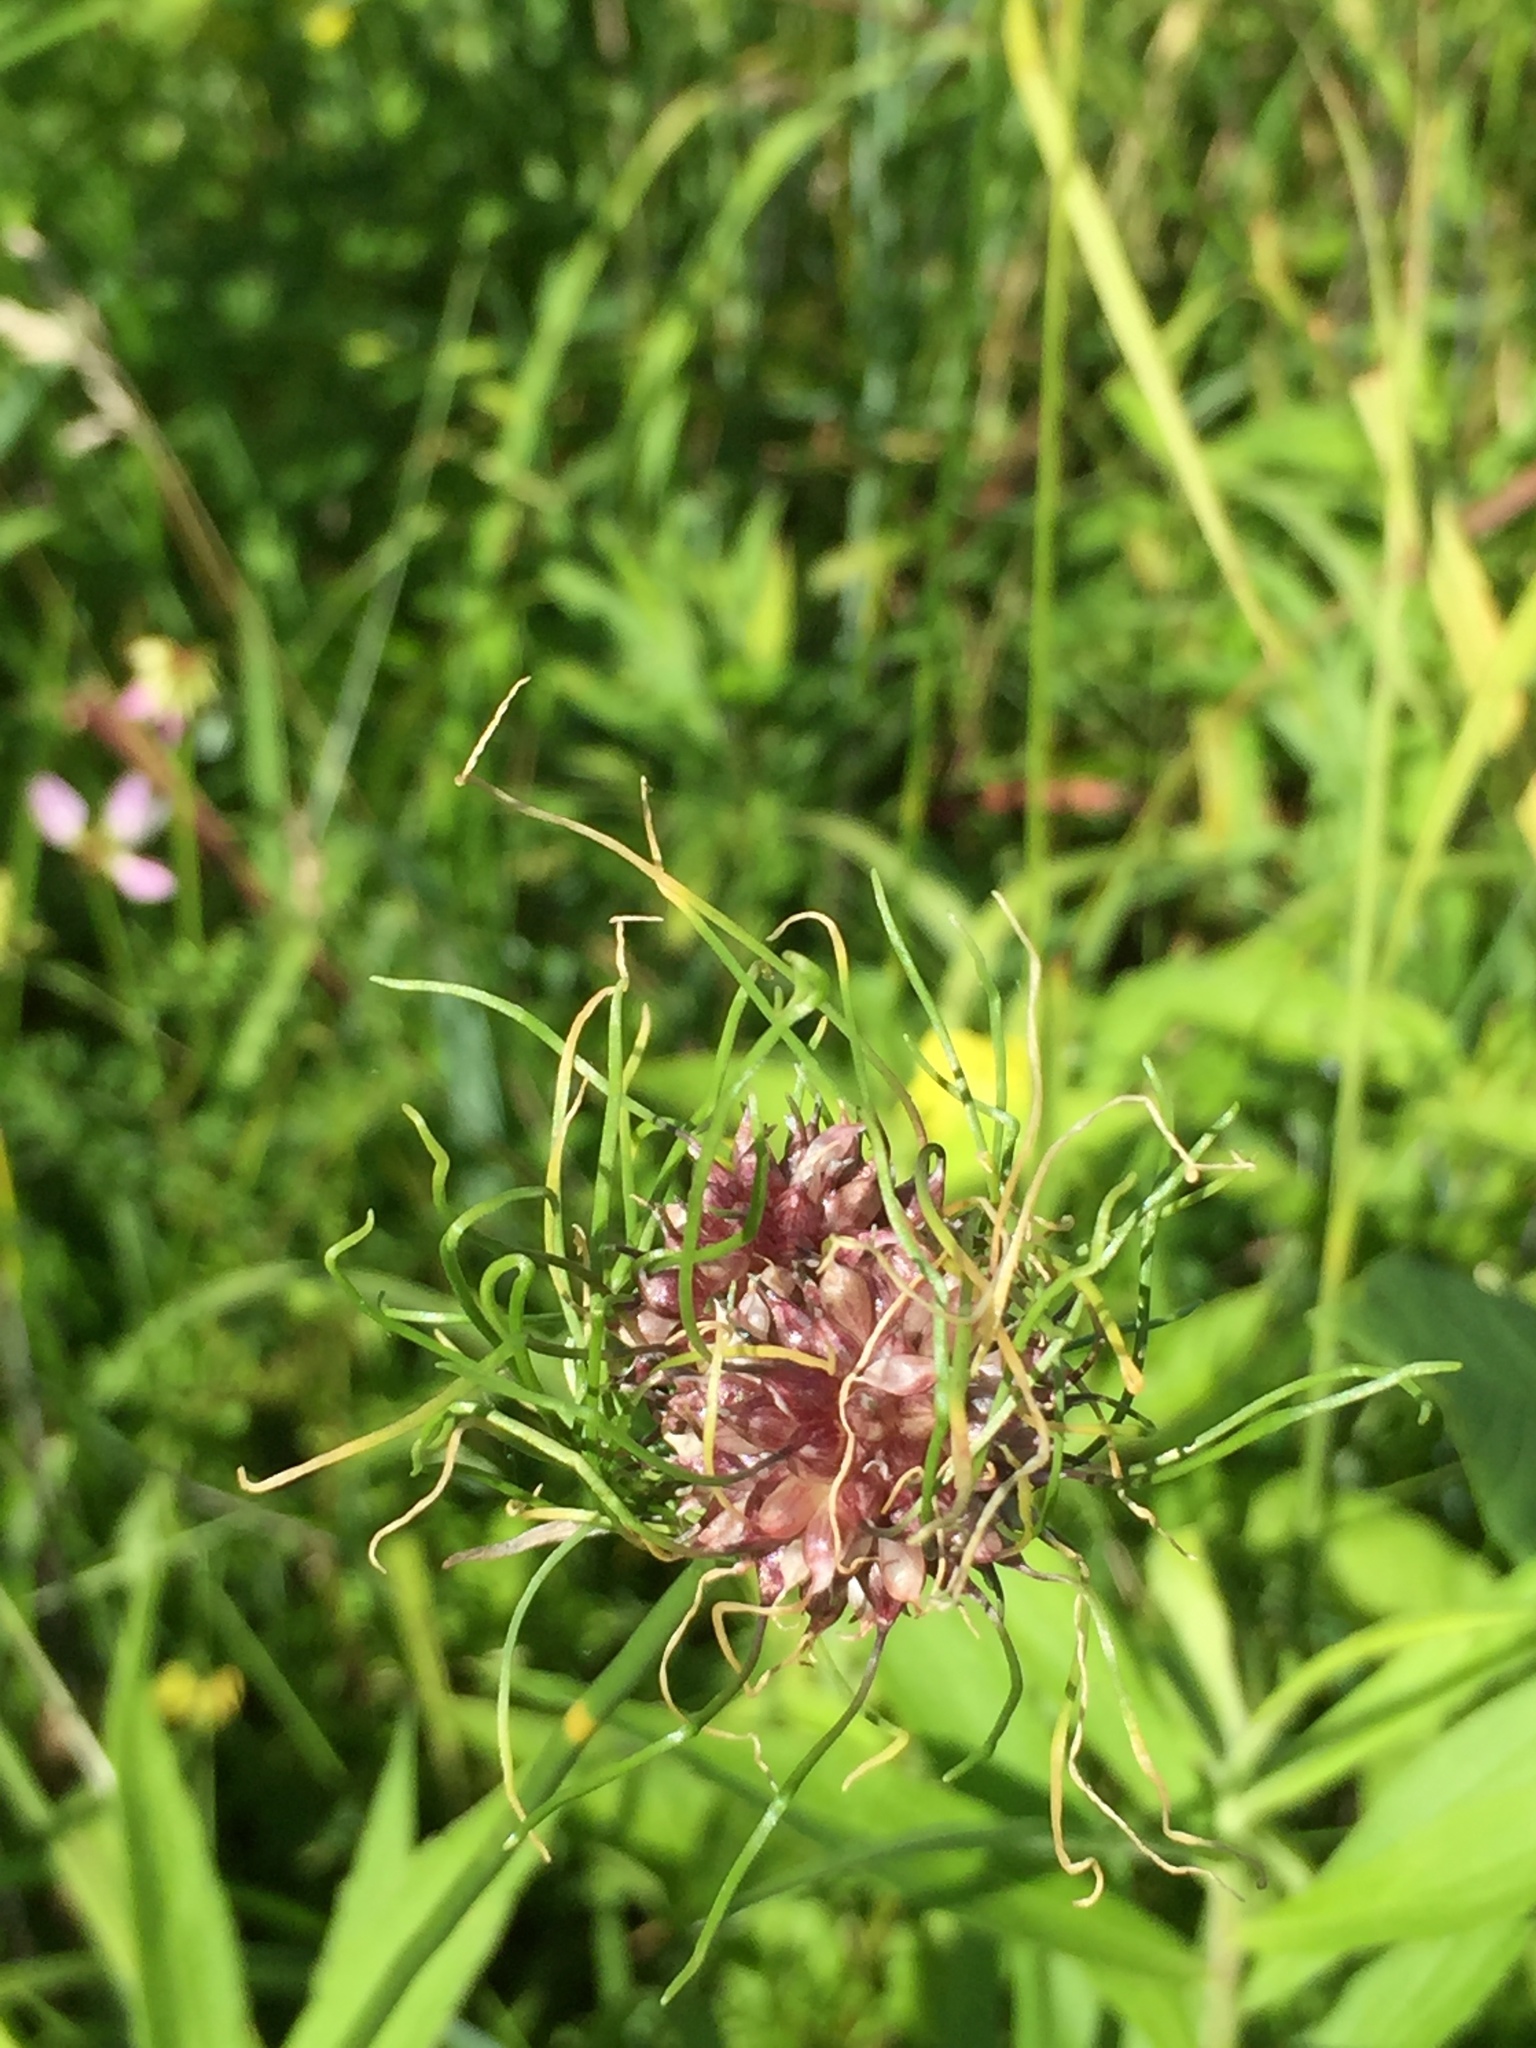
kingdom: Plantae
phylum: Tracheophyta
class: Liliopsida
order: Asparagales
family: Amaryllidaceae
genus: Allium
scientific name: Allium vineale
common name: Crow garlic
